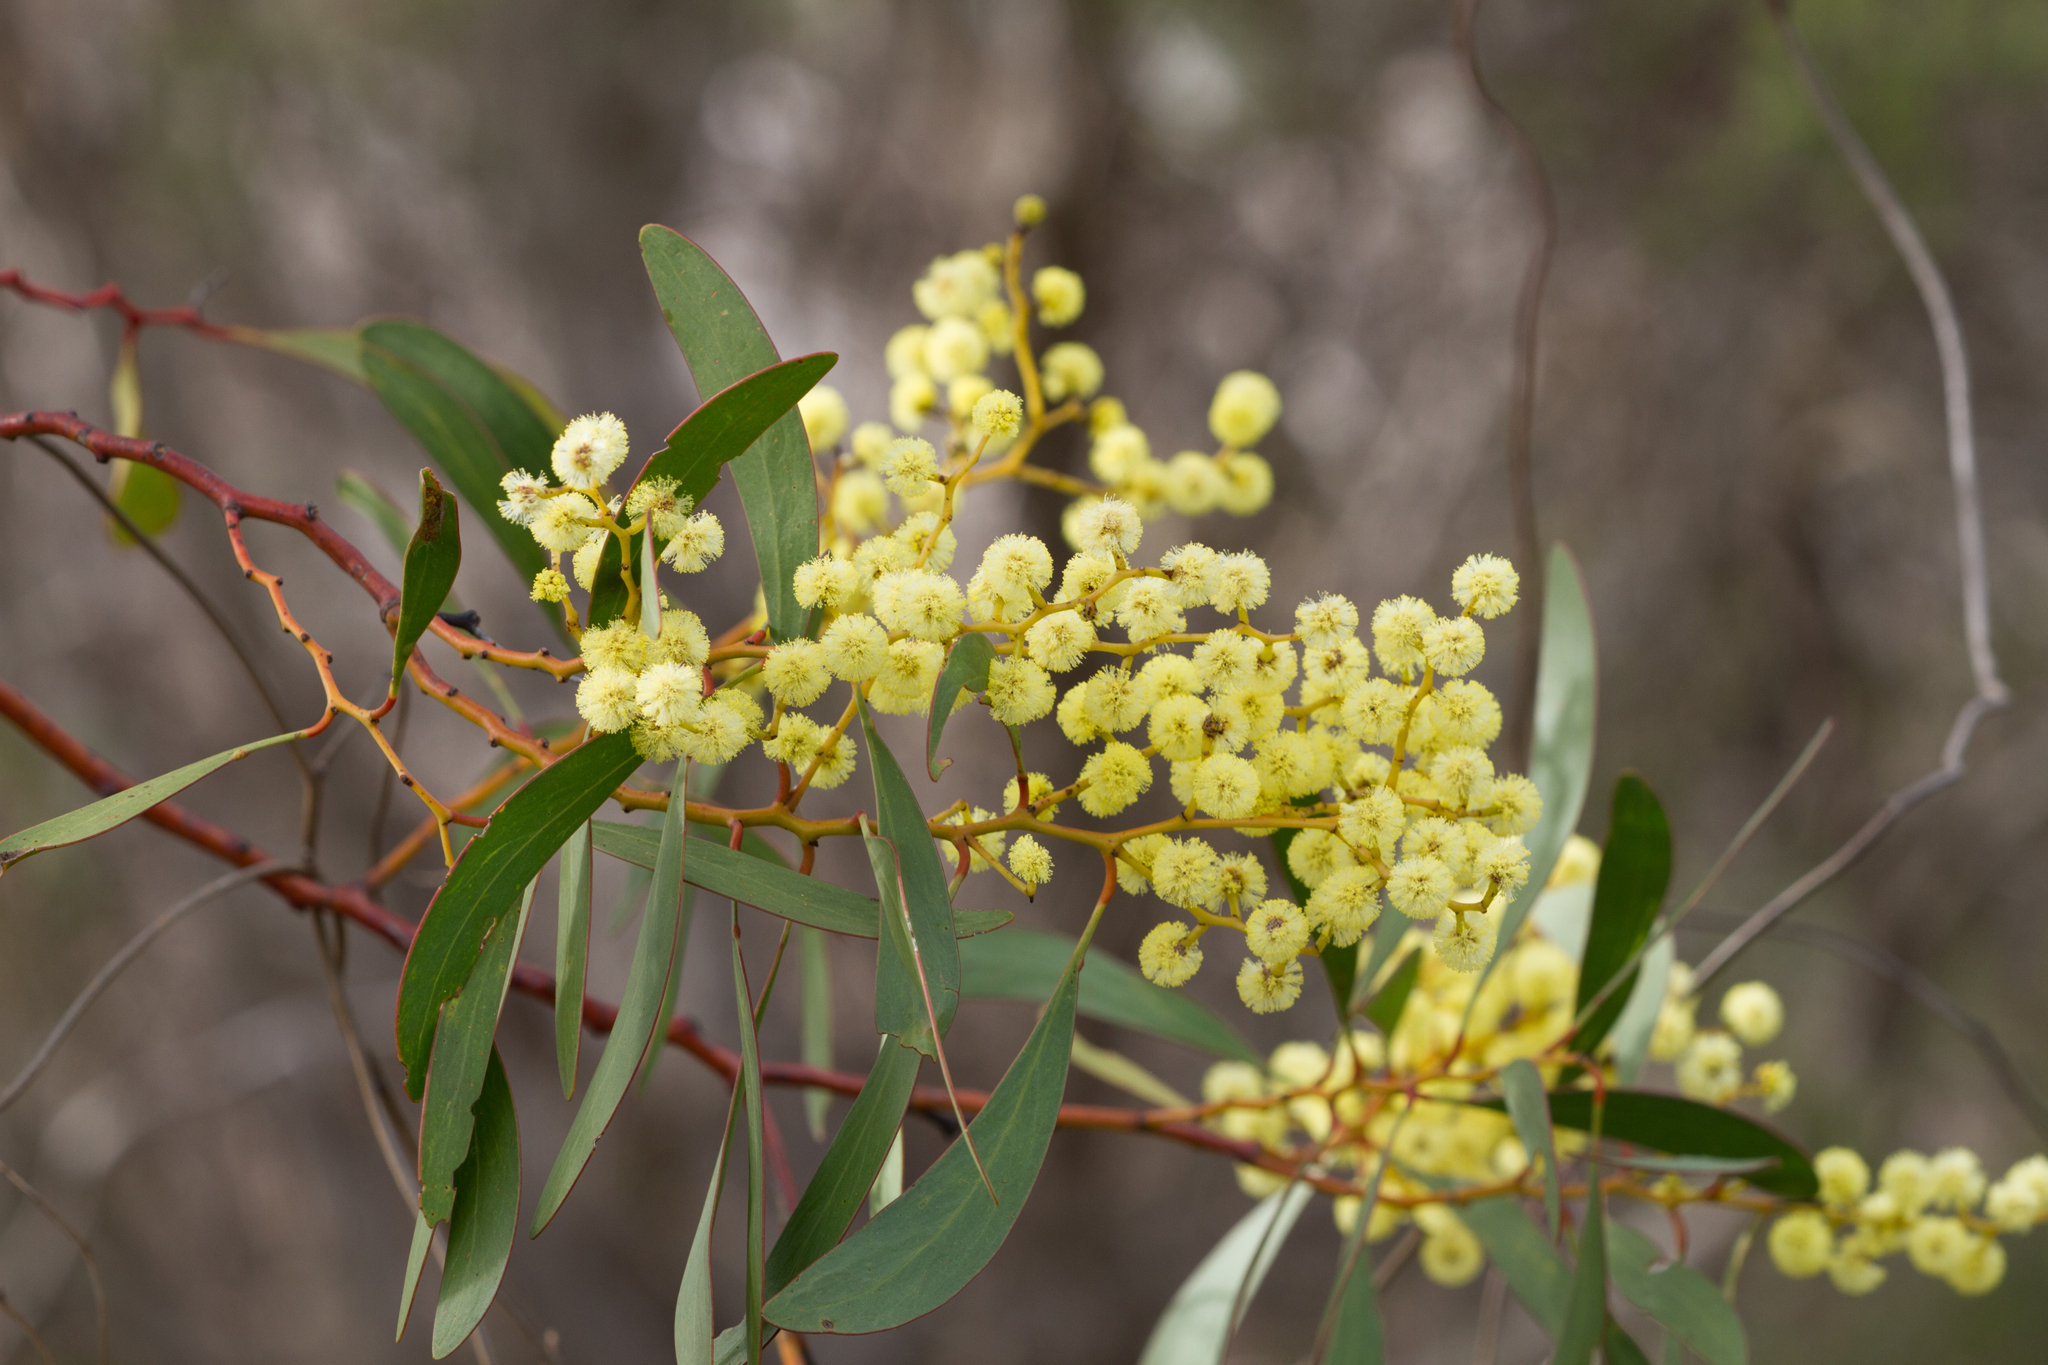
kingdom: Plantae
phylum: Tracheophyta
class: Magnoliopsida
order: Fabales
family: Fabaceae
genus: Acacia
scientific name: Acacia pycnantha
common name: Golden wattle
